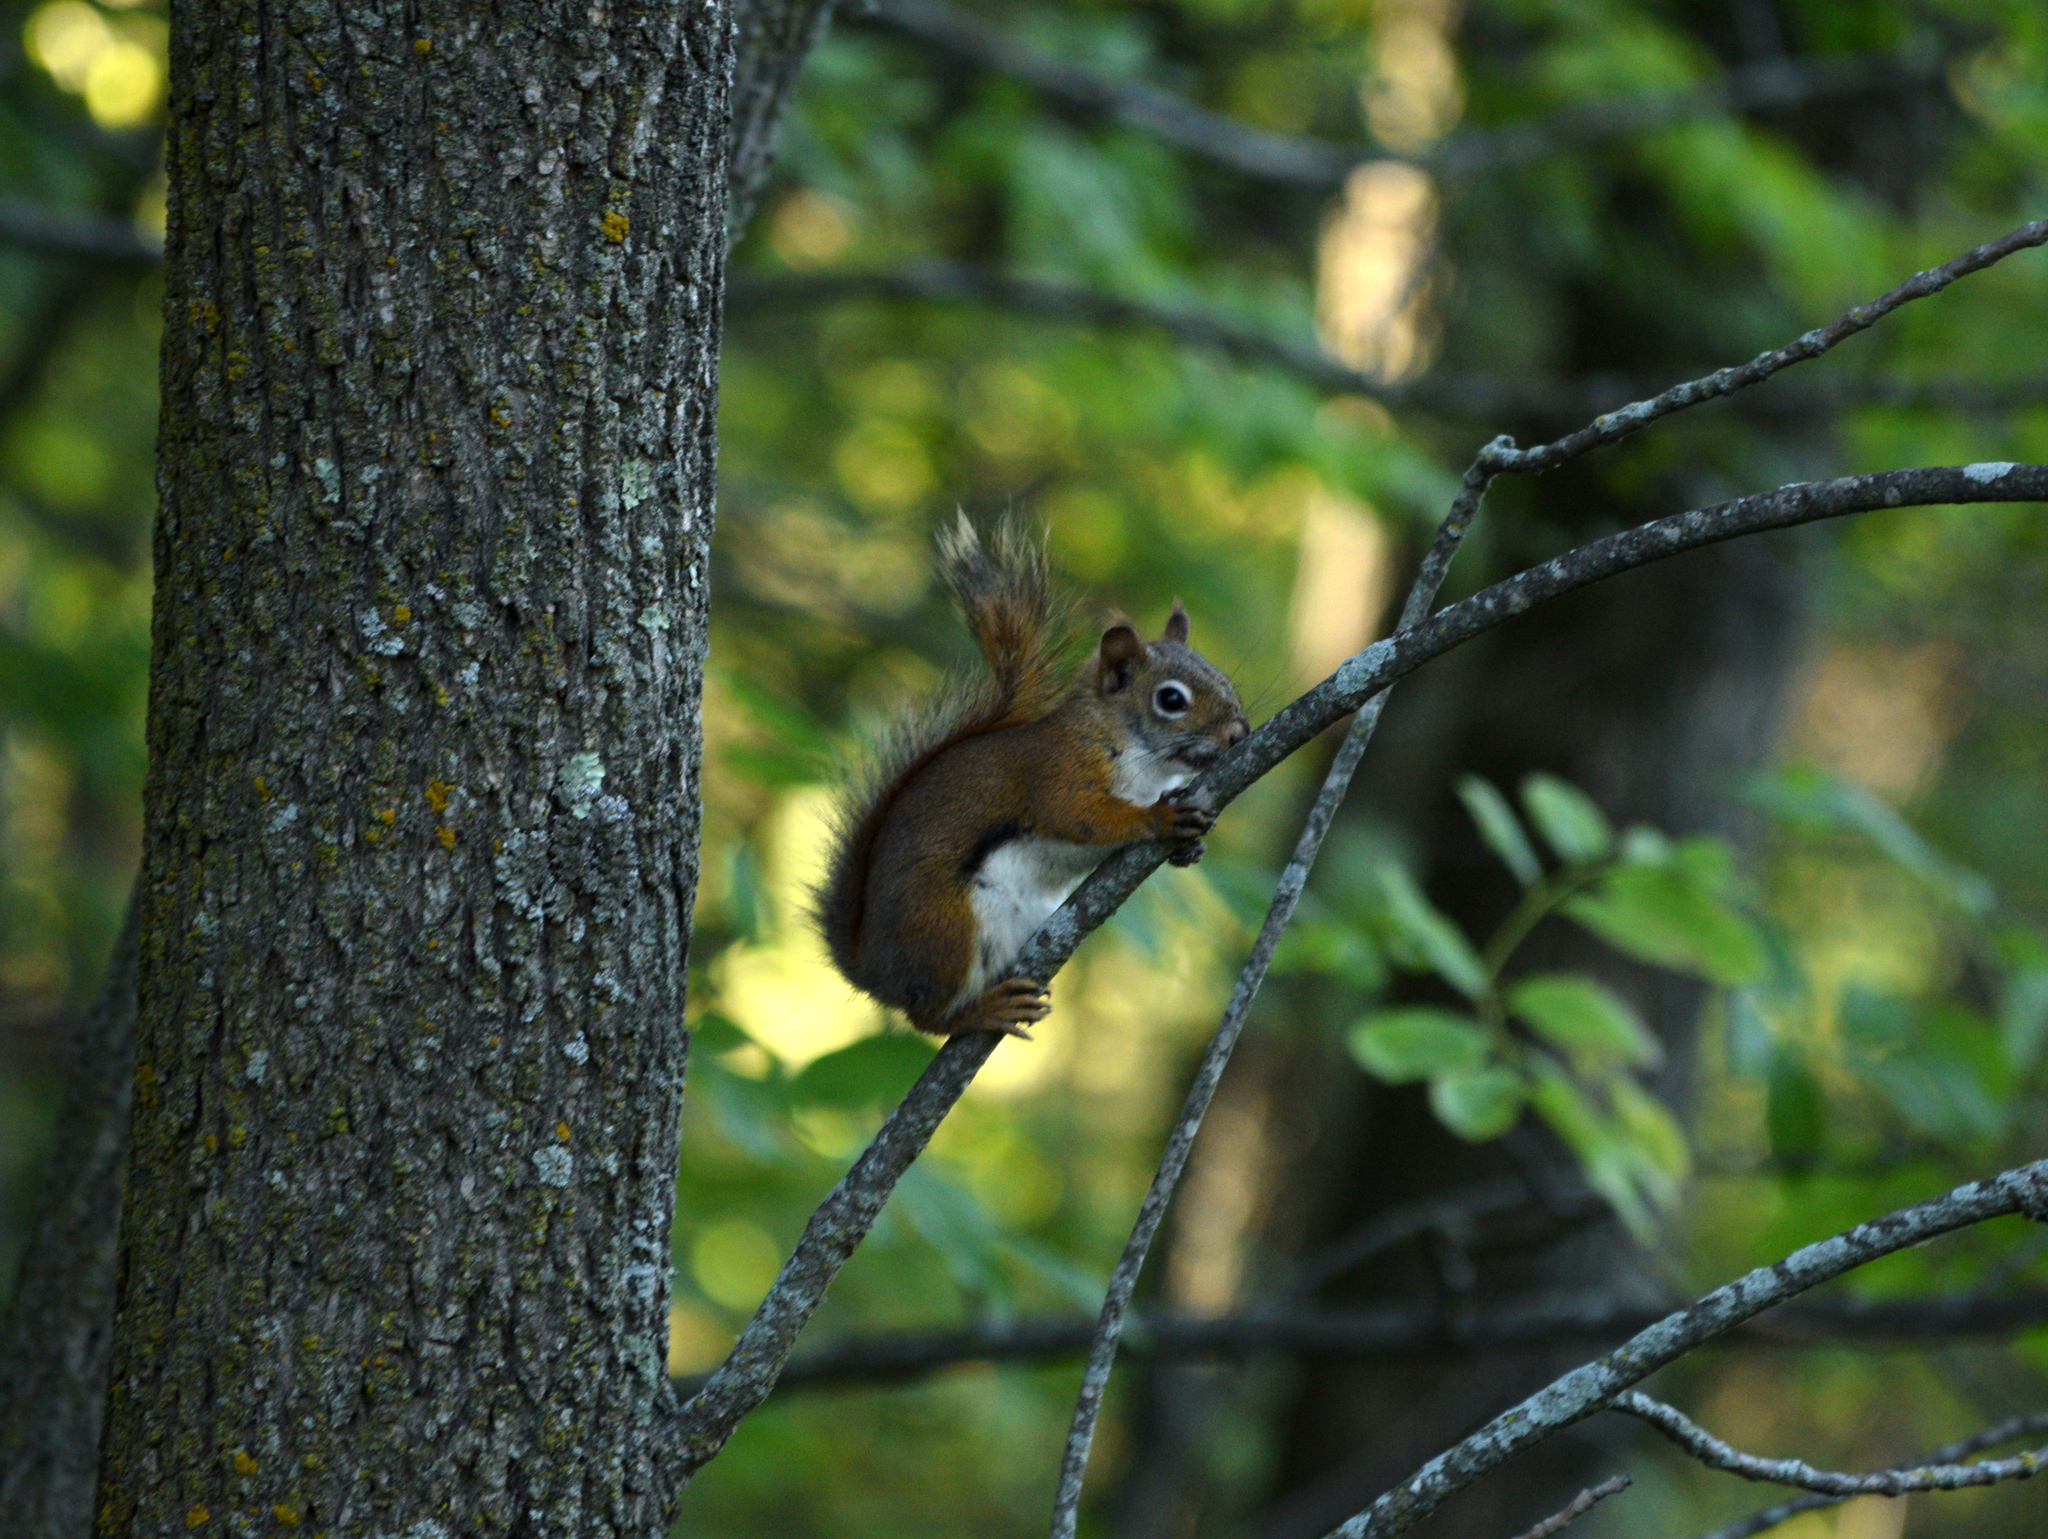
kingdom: Animalia
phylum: Chordata
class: Mammalia
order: Rodentia
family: Sciuridae
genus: Tamiasciurus
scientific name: Tamiasciurus hudsonicus
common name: Red squirrel
